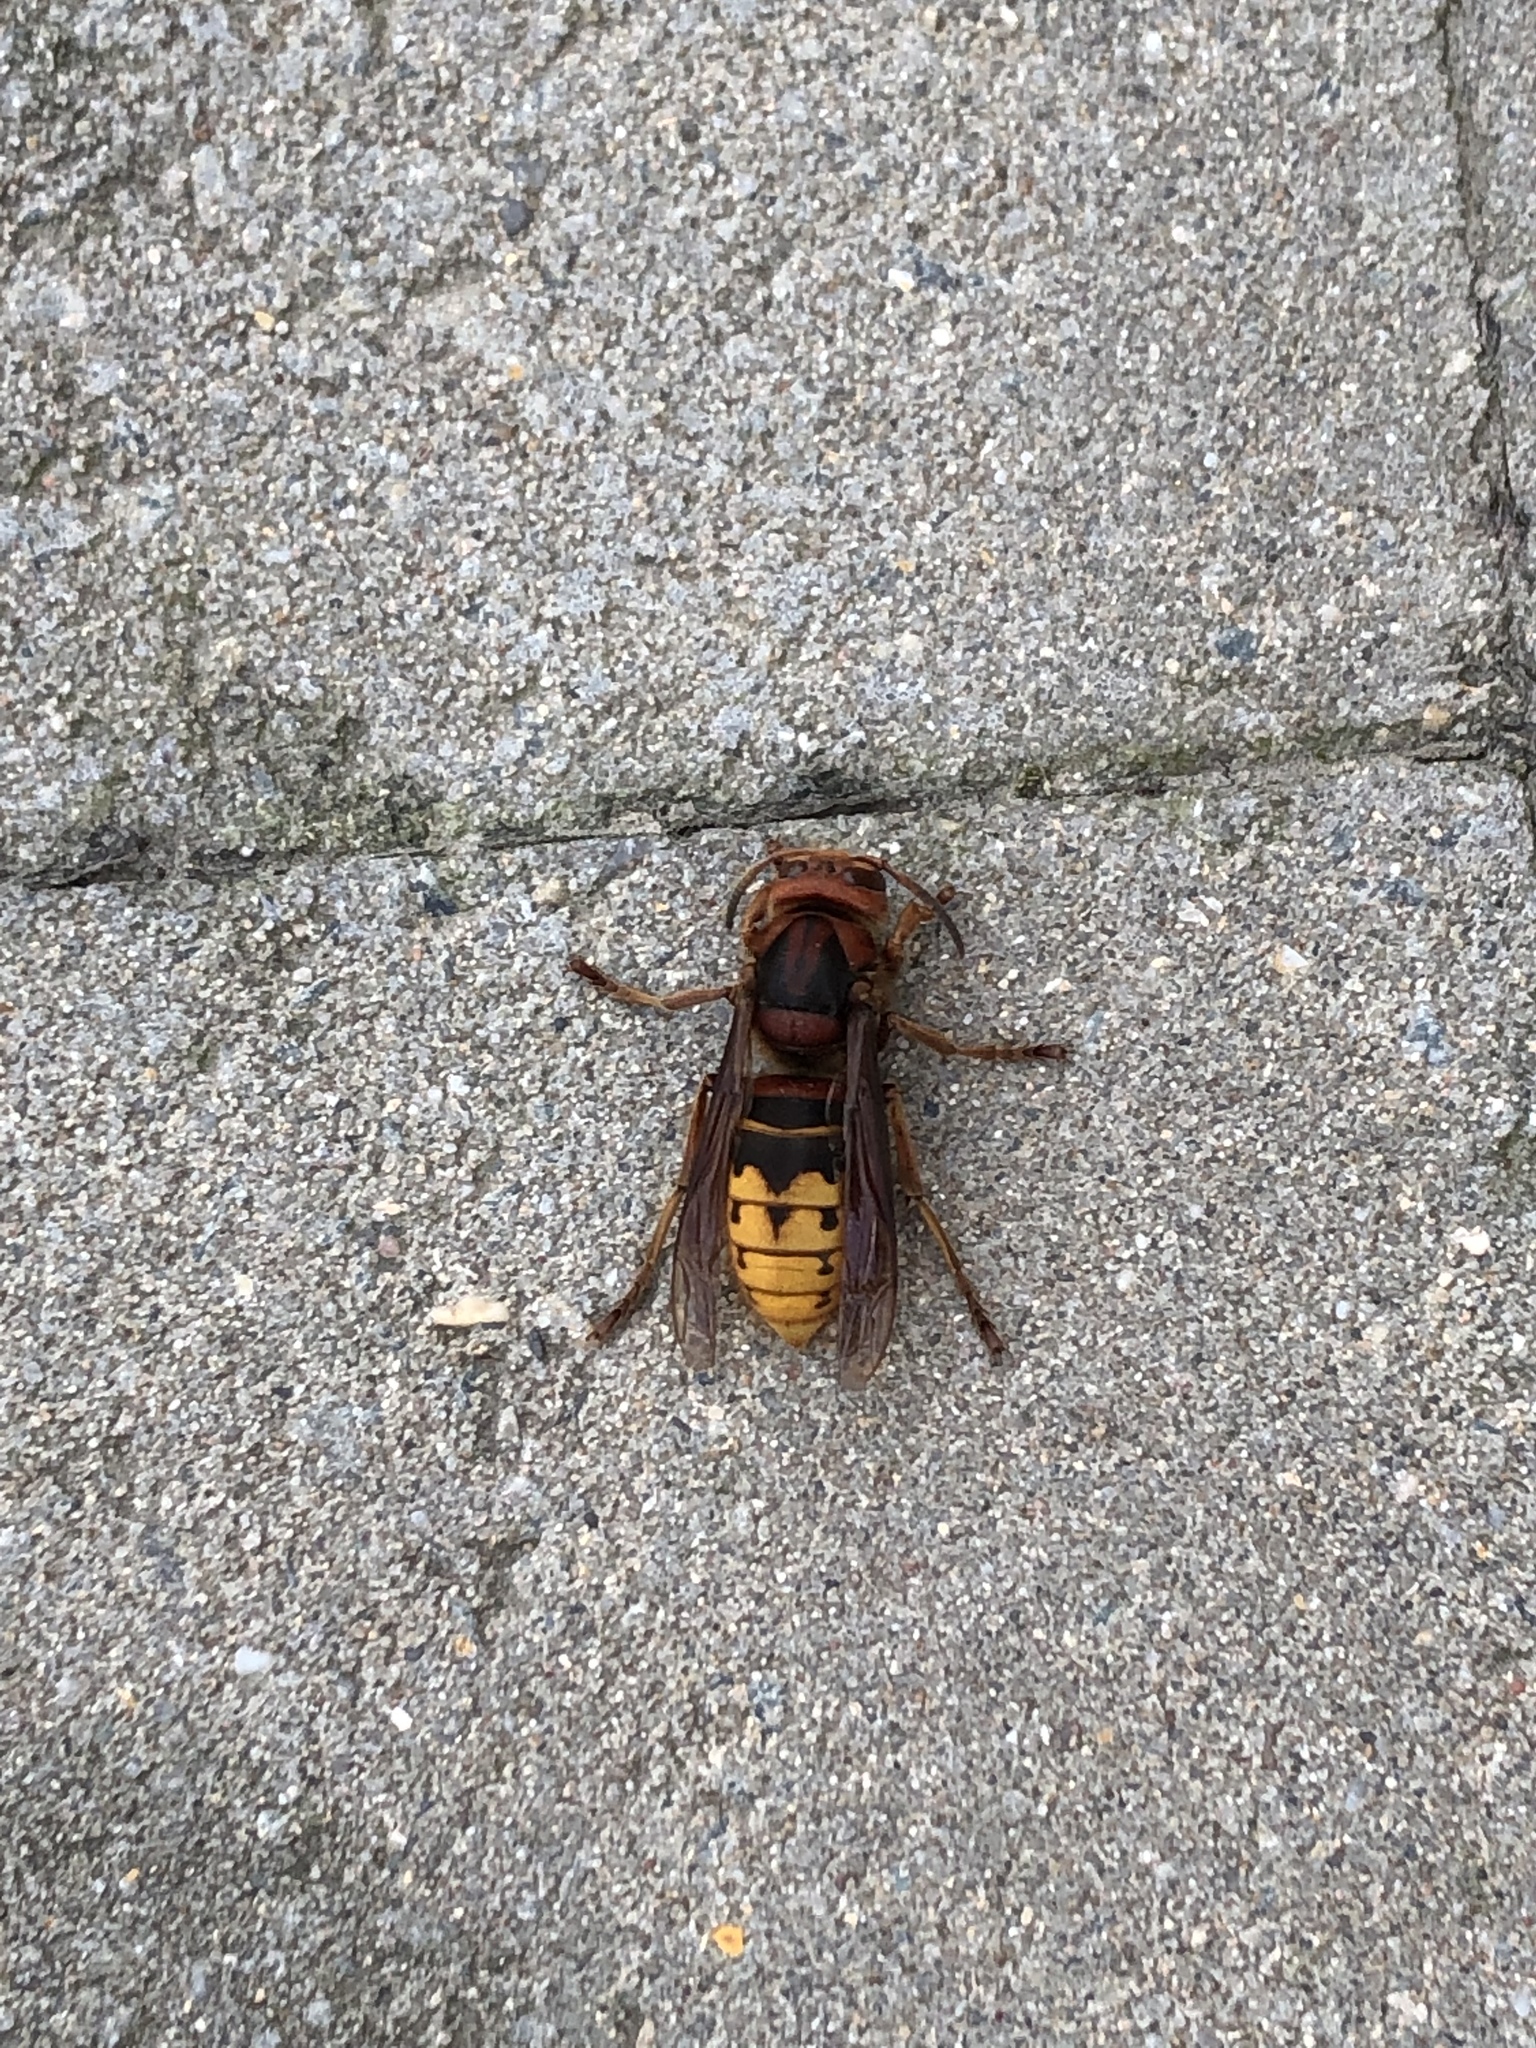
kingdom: Animalia
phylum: Arthropoda
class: Insecta
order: Hymenoptera
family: Vespidae
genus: Vespa
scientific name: Vespa crabro
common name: Hornet
